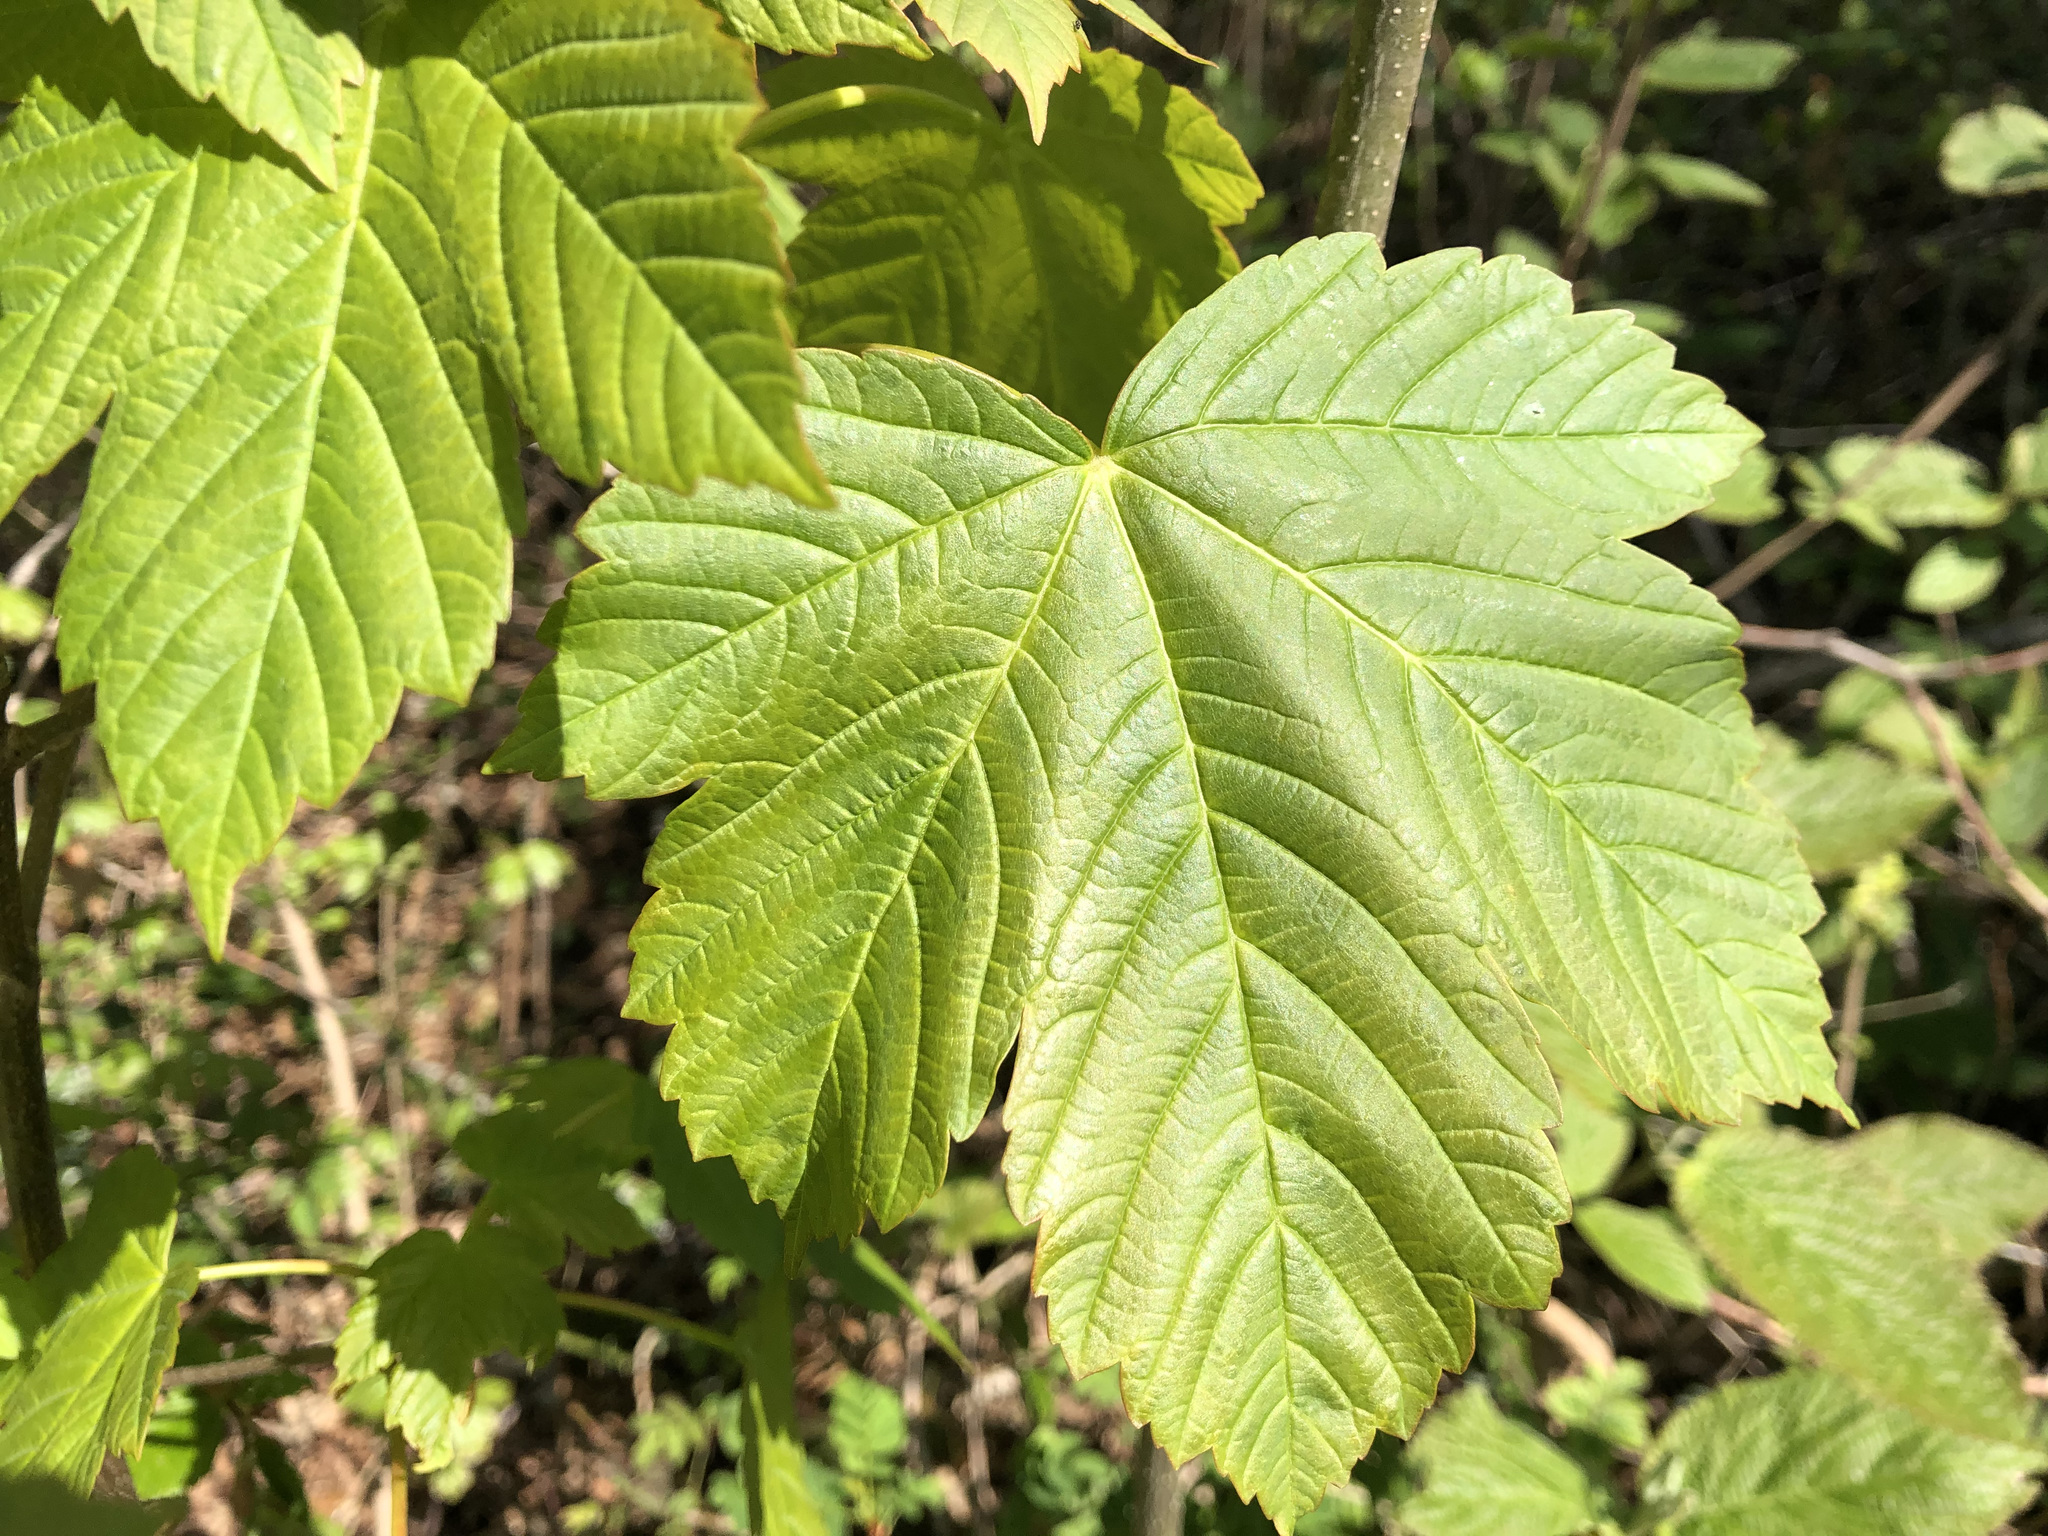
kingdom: Plantae
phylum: Tracheophyta
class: Magnoliopsida
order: Sapindales
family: Sapindaceae
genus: Acer
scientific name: Acer pseudoplatanus
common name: Sycamore
